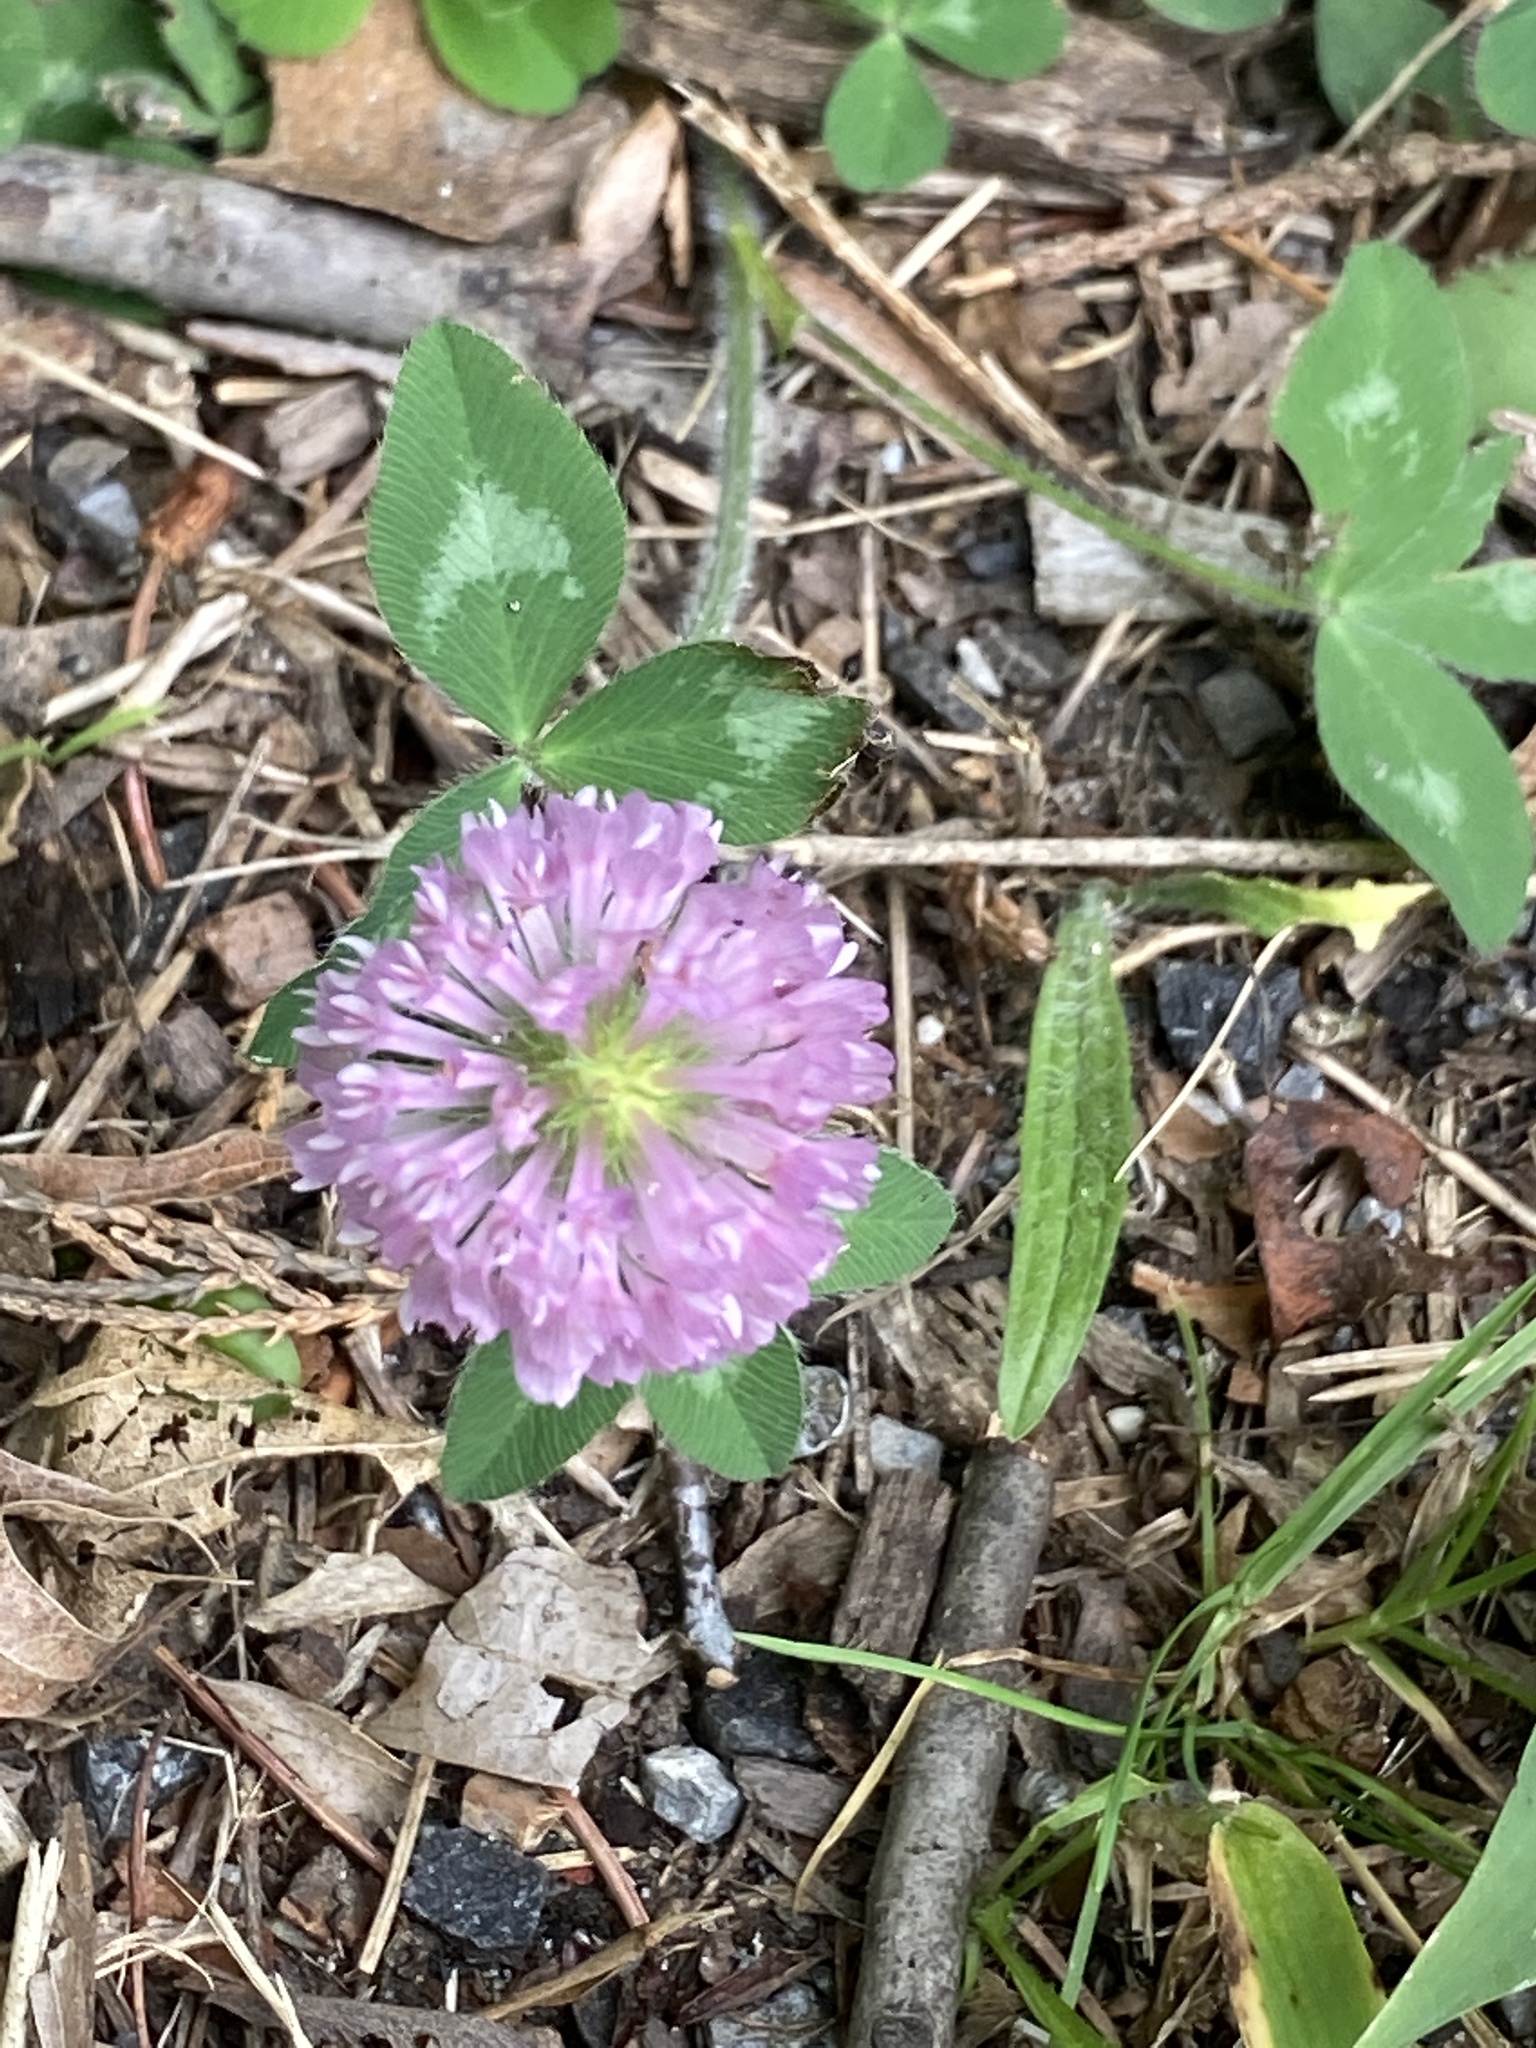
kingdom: Plantae
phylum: Tracheophyta
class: Magnoliopsida
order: Fabales
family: Fabaceae
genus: Trifolium
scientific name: Trifolium pratense
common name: Red clover
